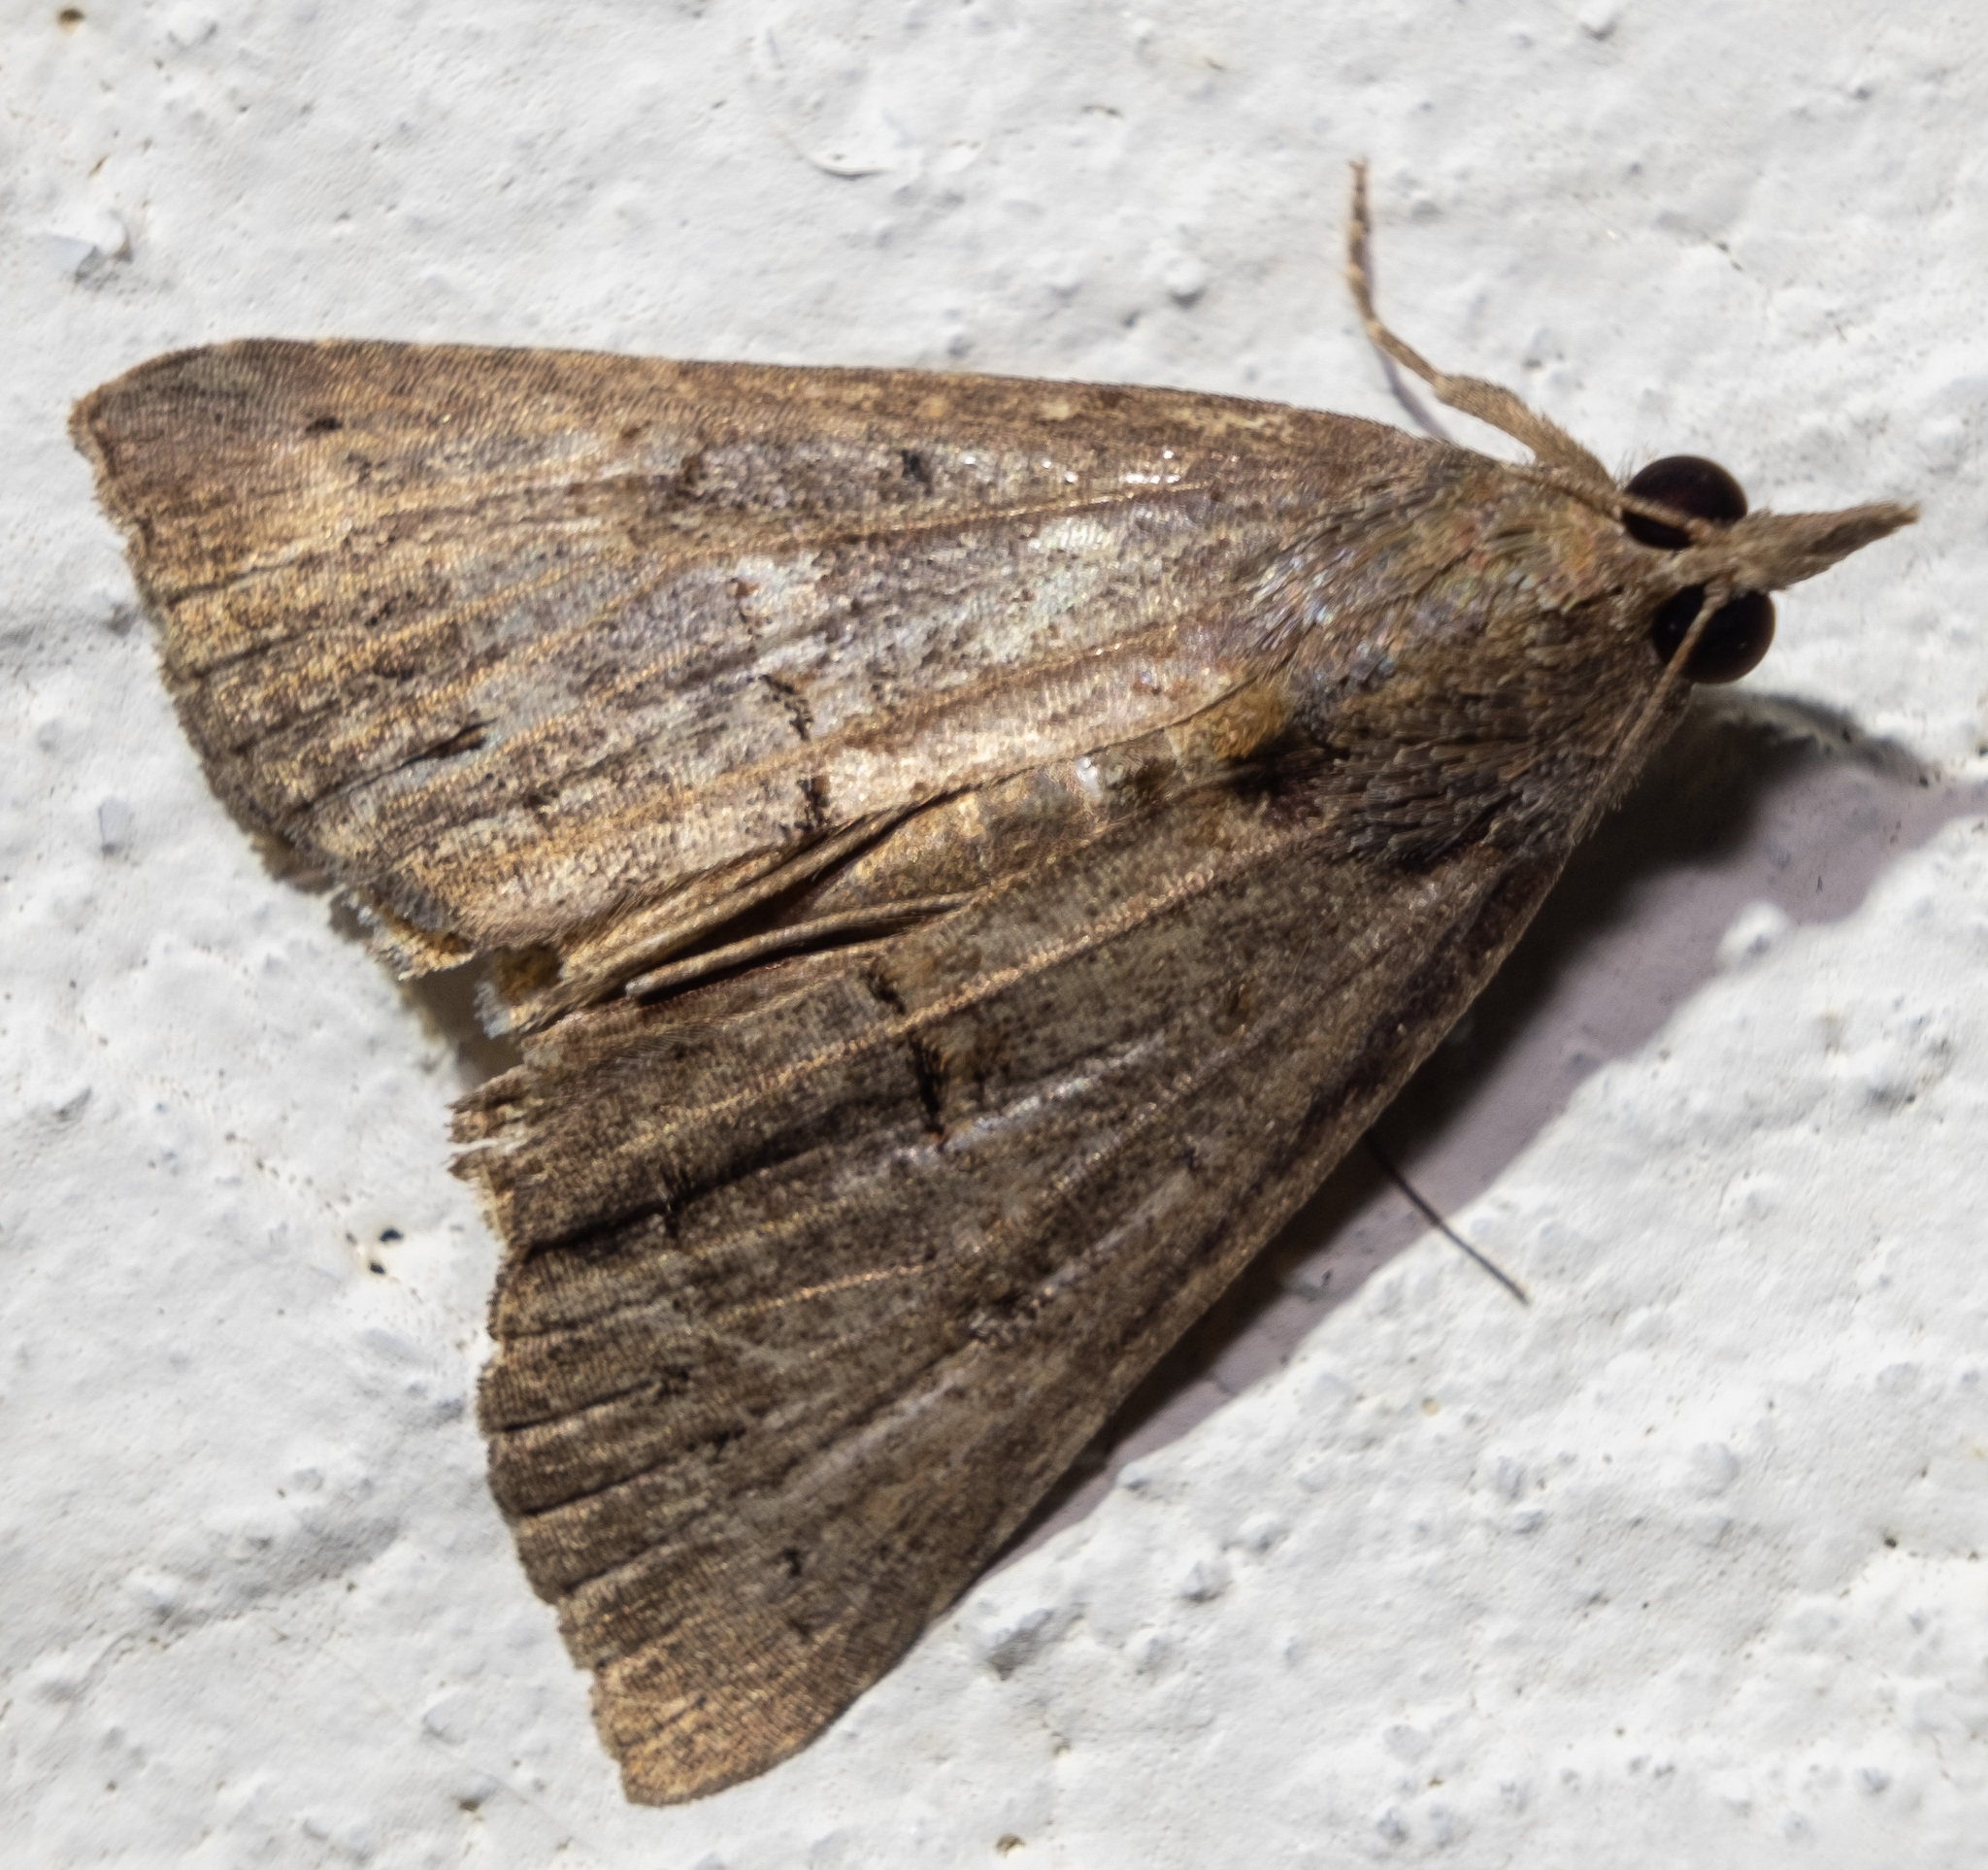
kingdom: Animalia
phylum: Arthropoda
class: Insecta
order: Lepidoptera
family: Erebidae
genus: Hypena
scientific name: Hypena scabra
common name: Green cloverworm
